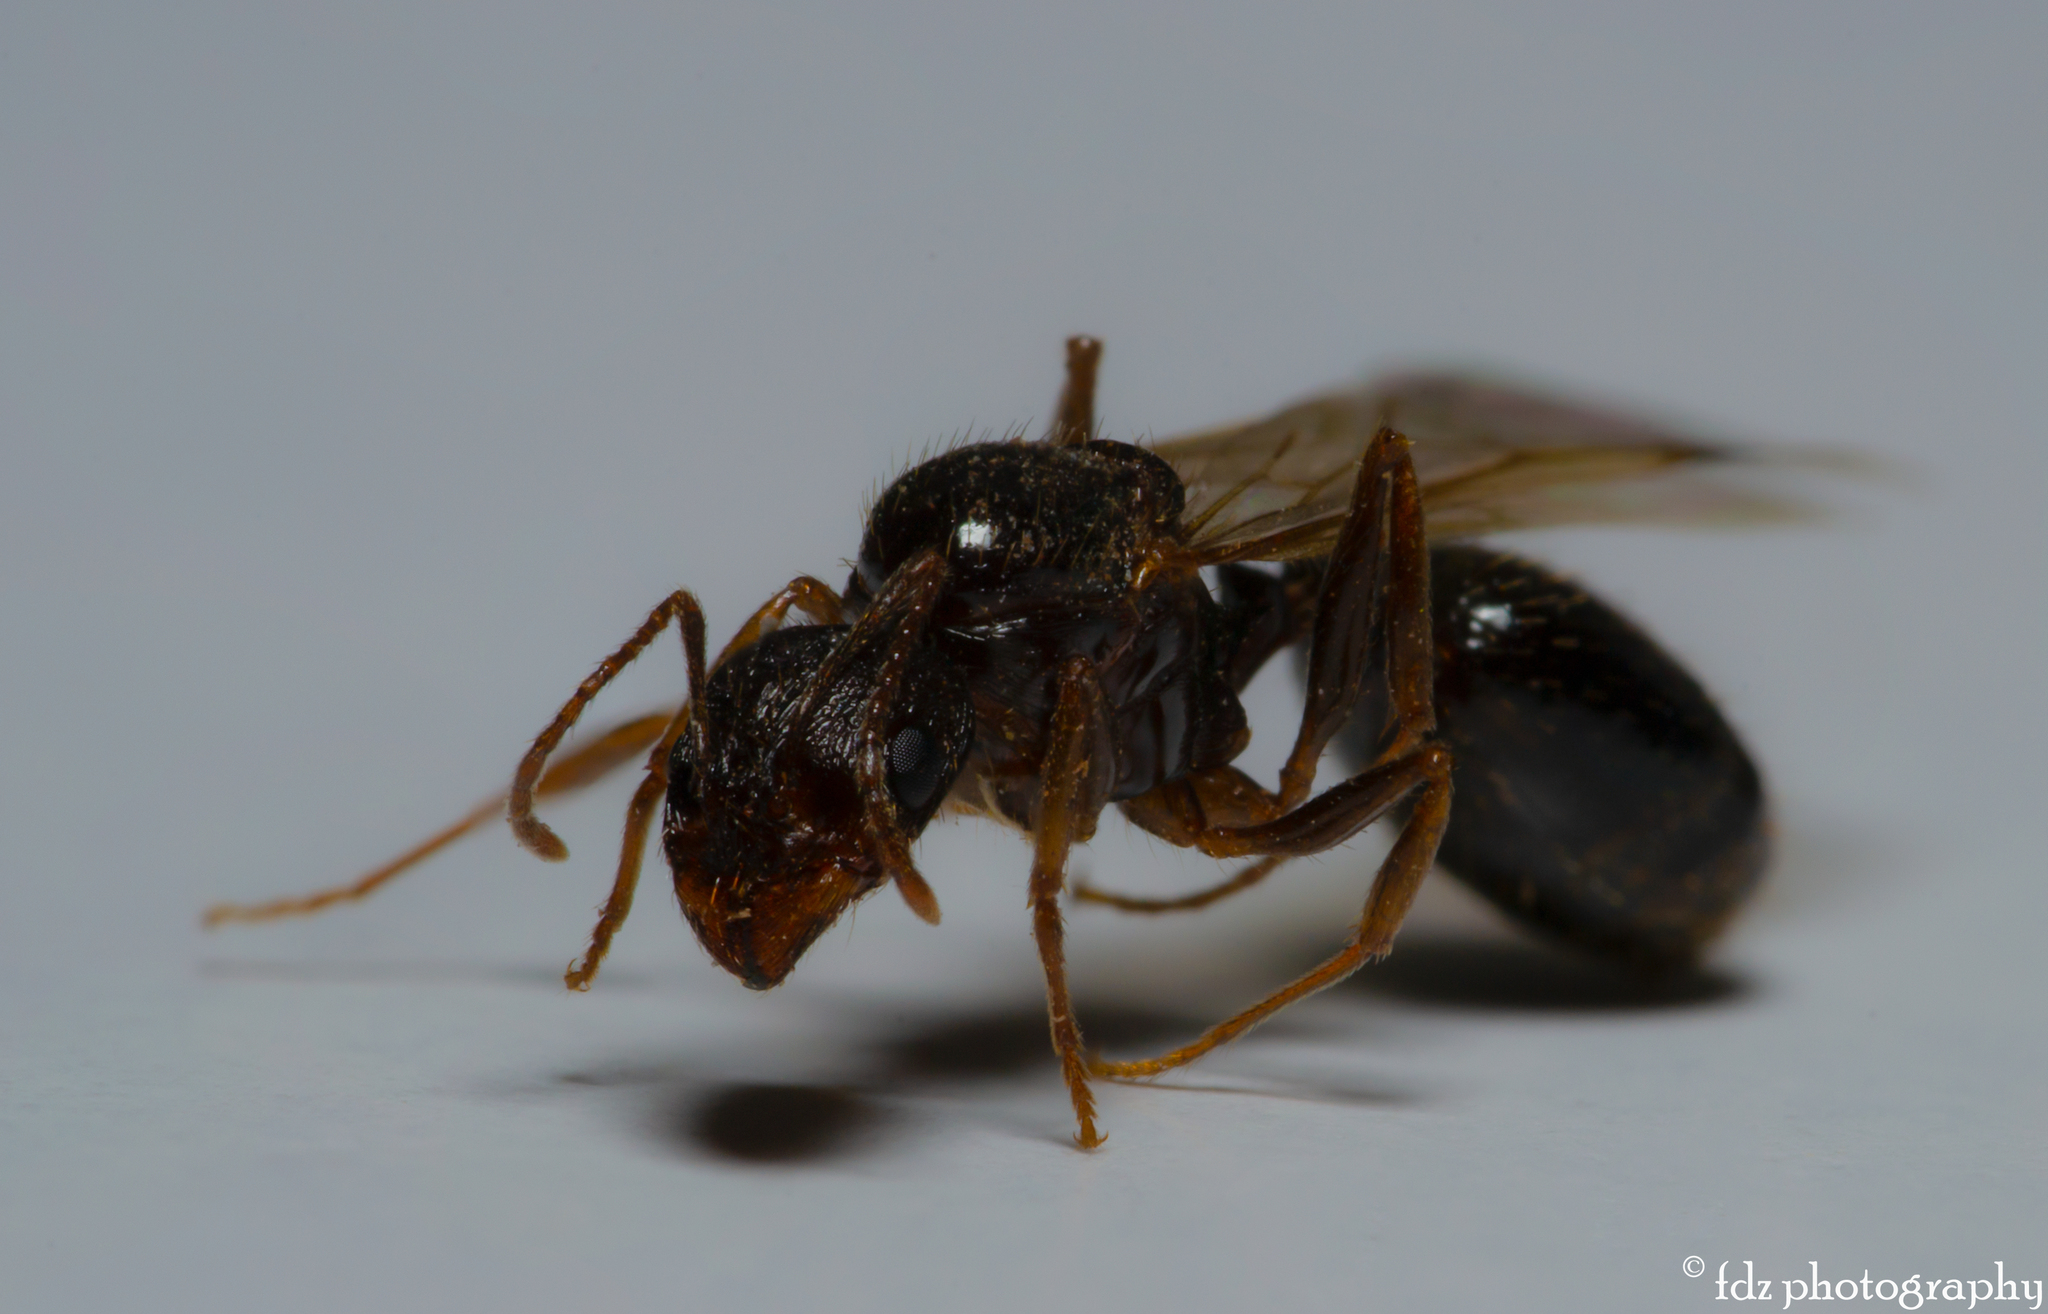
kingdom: Animalia
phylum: Arthropoda
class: Insecta
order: Hymenoptera
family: Formicidae
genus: Aphaenogaster
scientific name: Aphaenogaster gibbosa
